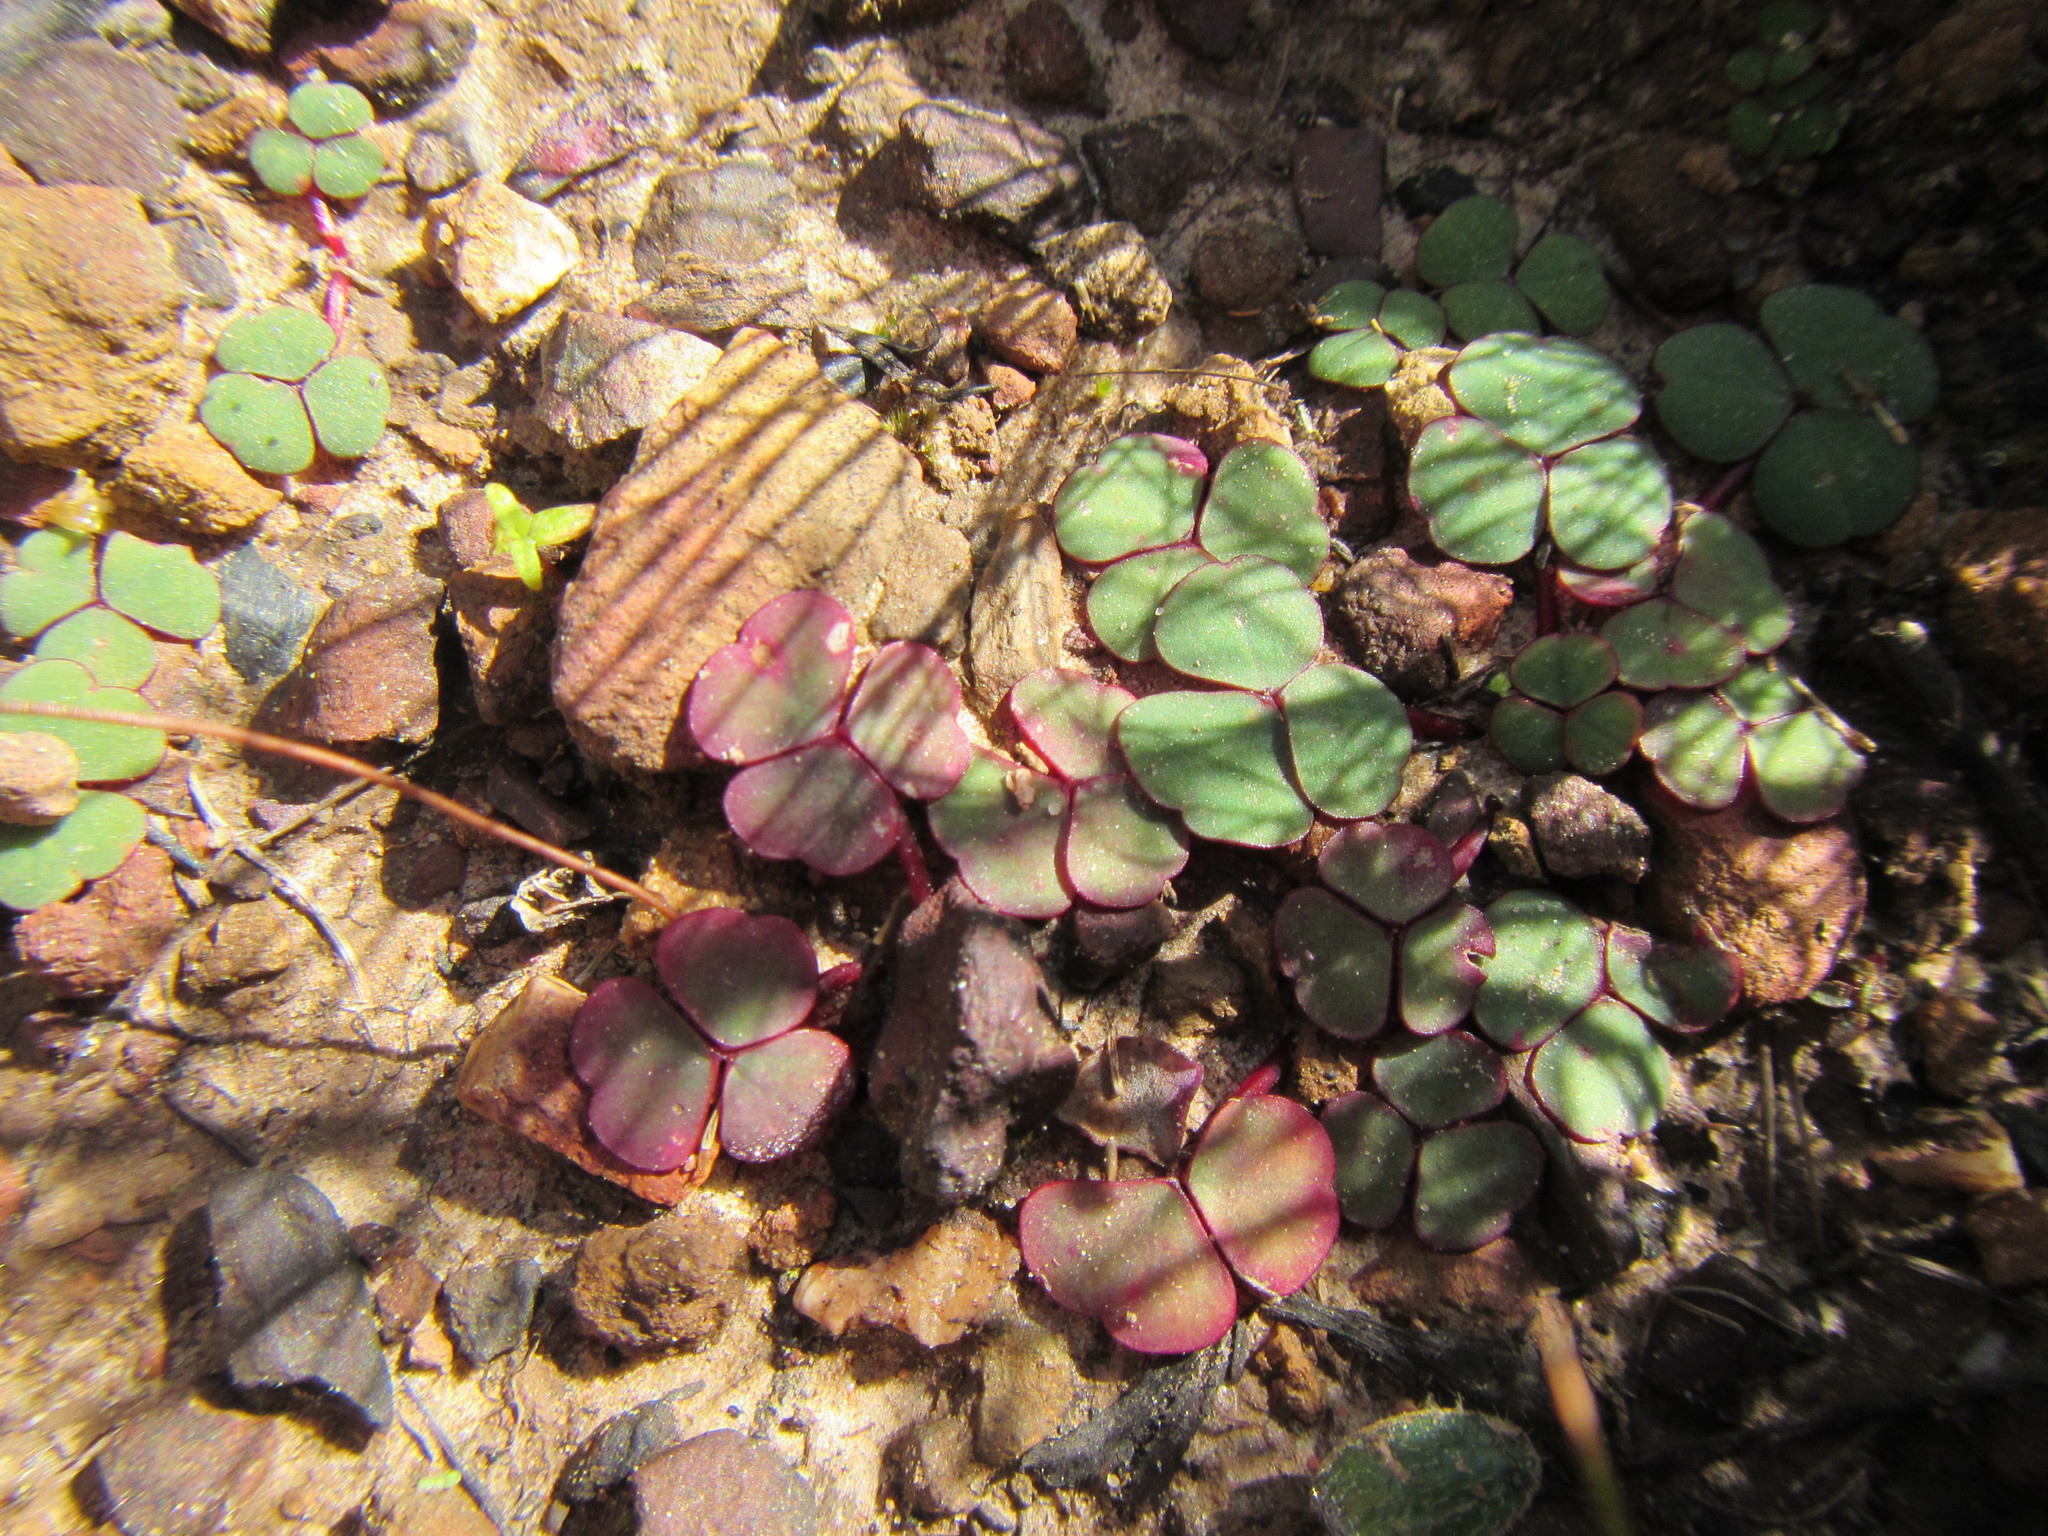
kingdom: Plantae
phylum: Tracheophyta
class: Magnoliopsida
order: Oxalidales
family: Oxalidaceae
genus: Oxalis
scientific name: Oxalis commutata
